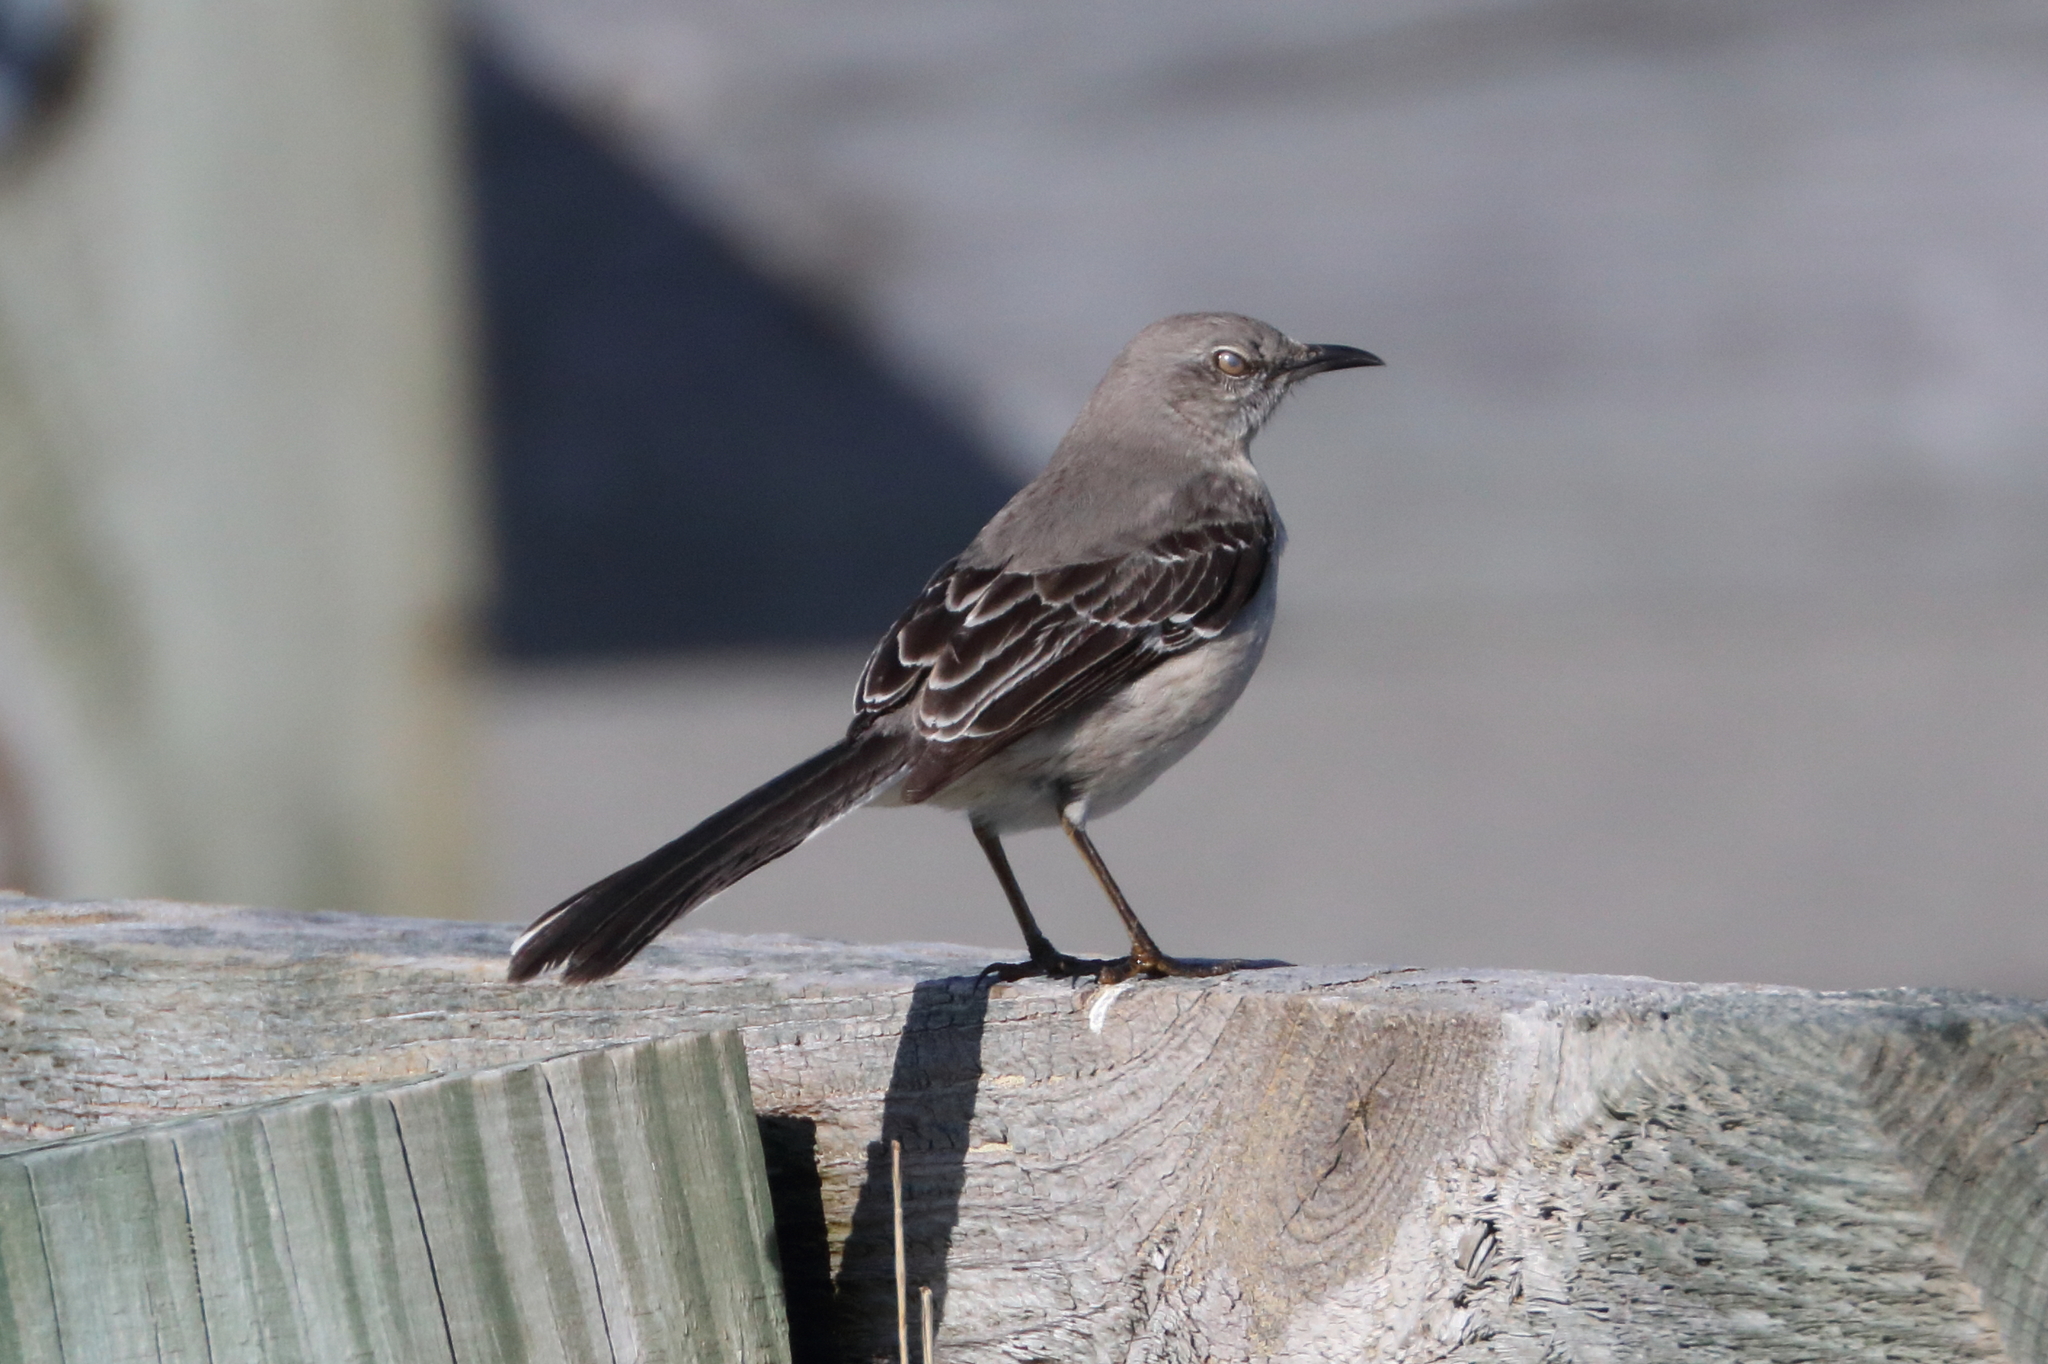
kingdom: Animalia
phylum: Chordata
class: Aves
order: Passeriformes
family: Mimidae
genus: Mimus
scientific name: Mimus polyglottos
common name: Northern mockingbird
